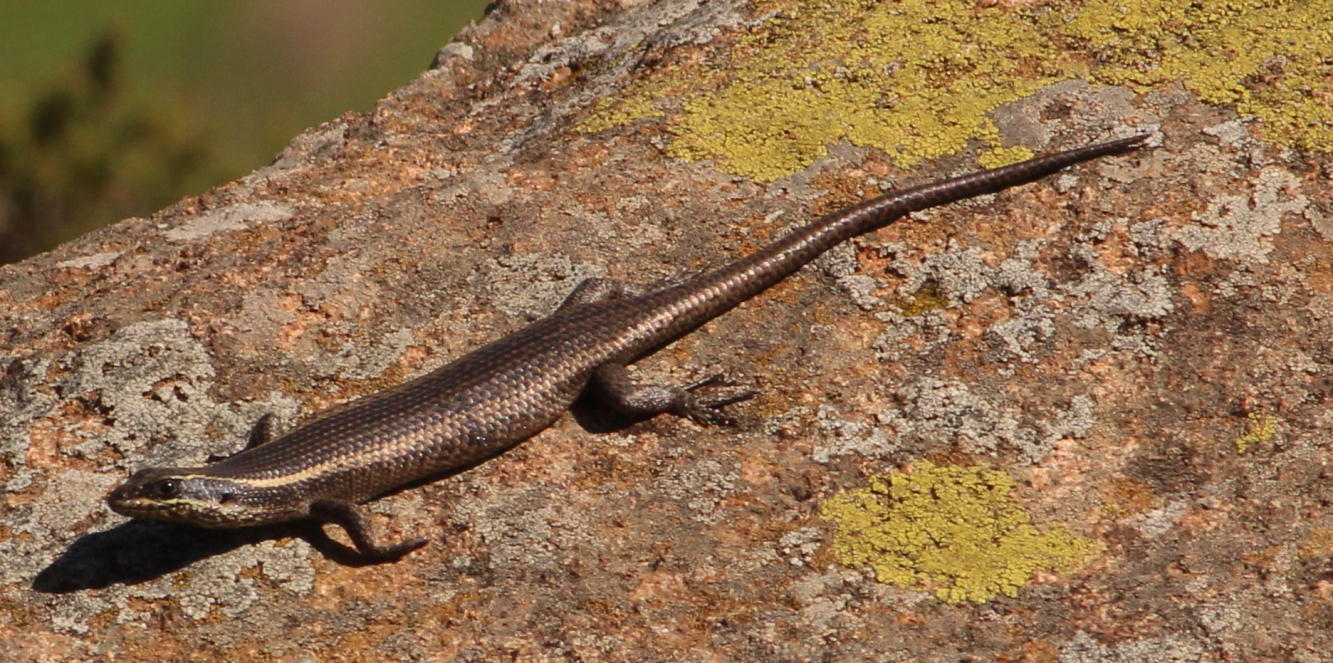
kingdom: Animalia
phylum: Chordata
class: Squamata
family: Scincidae
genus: Trachylepis
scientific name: Trachylepis punctatissima
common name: Montane speckled skink
